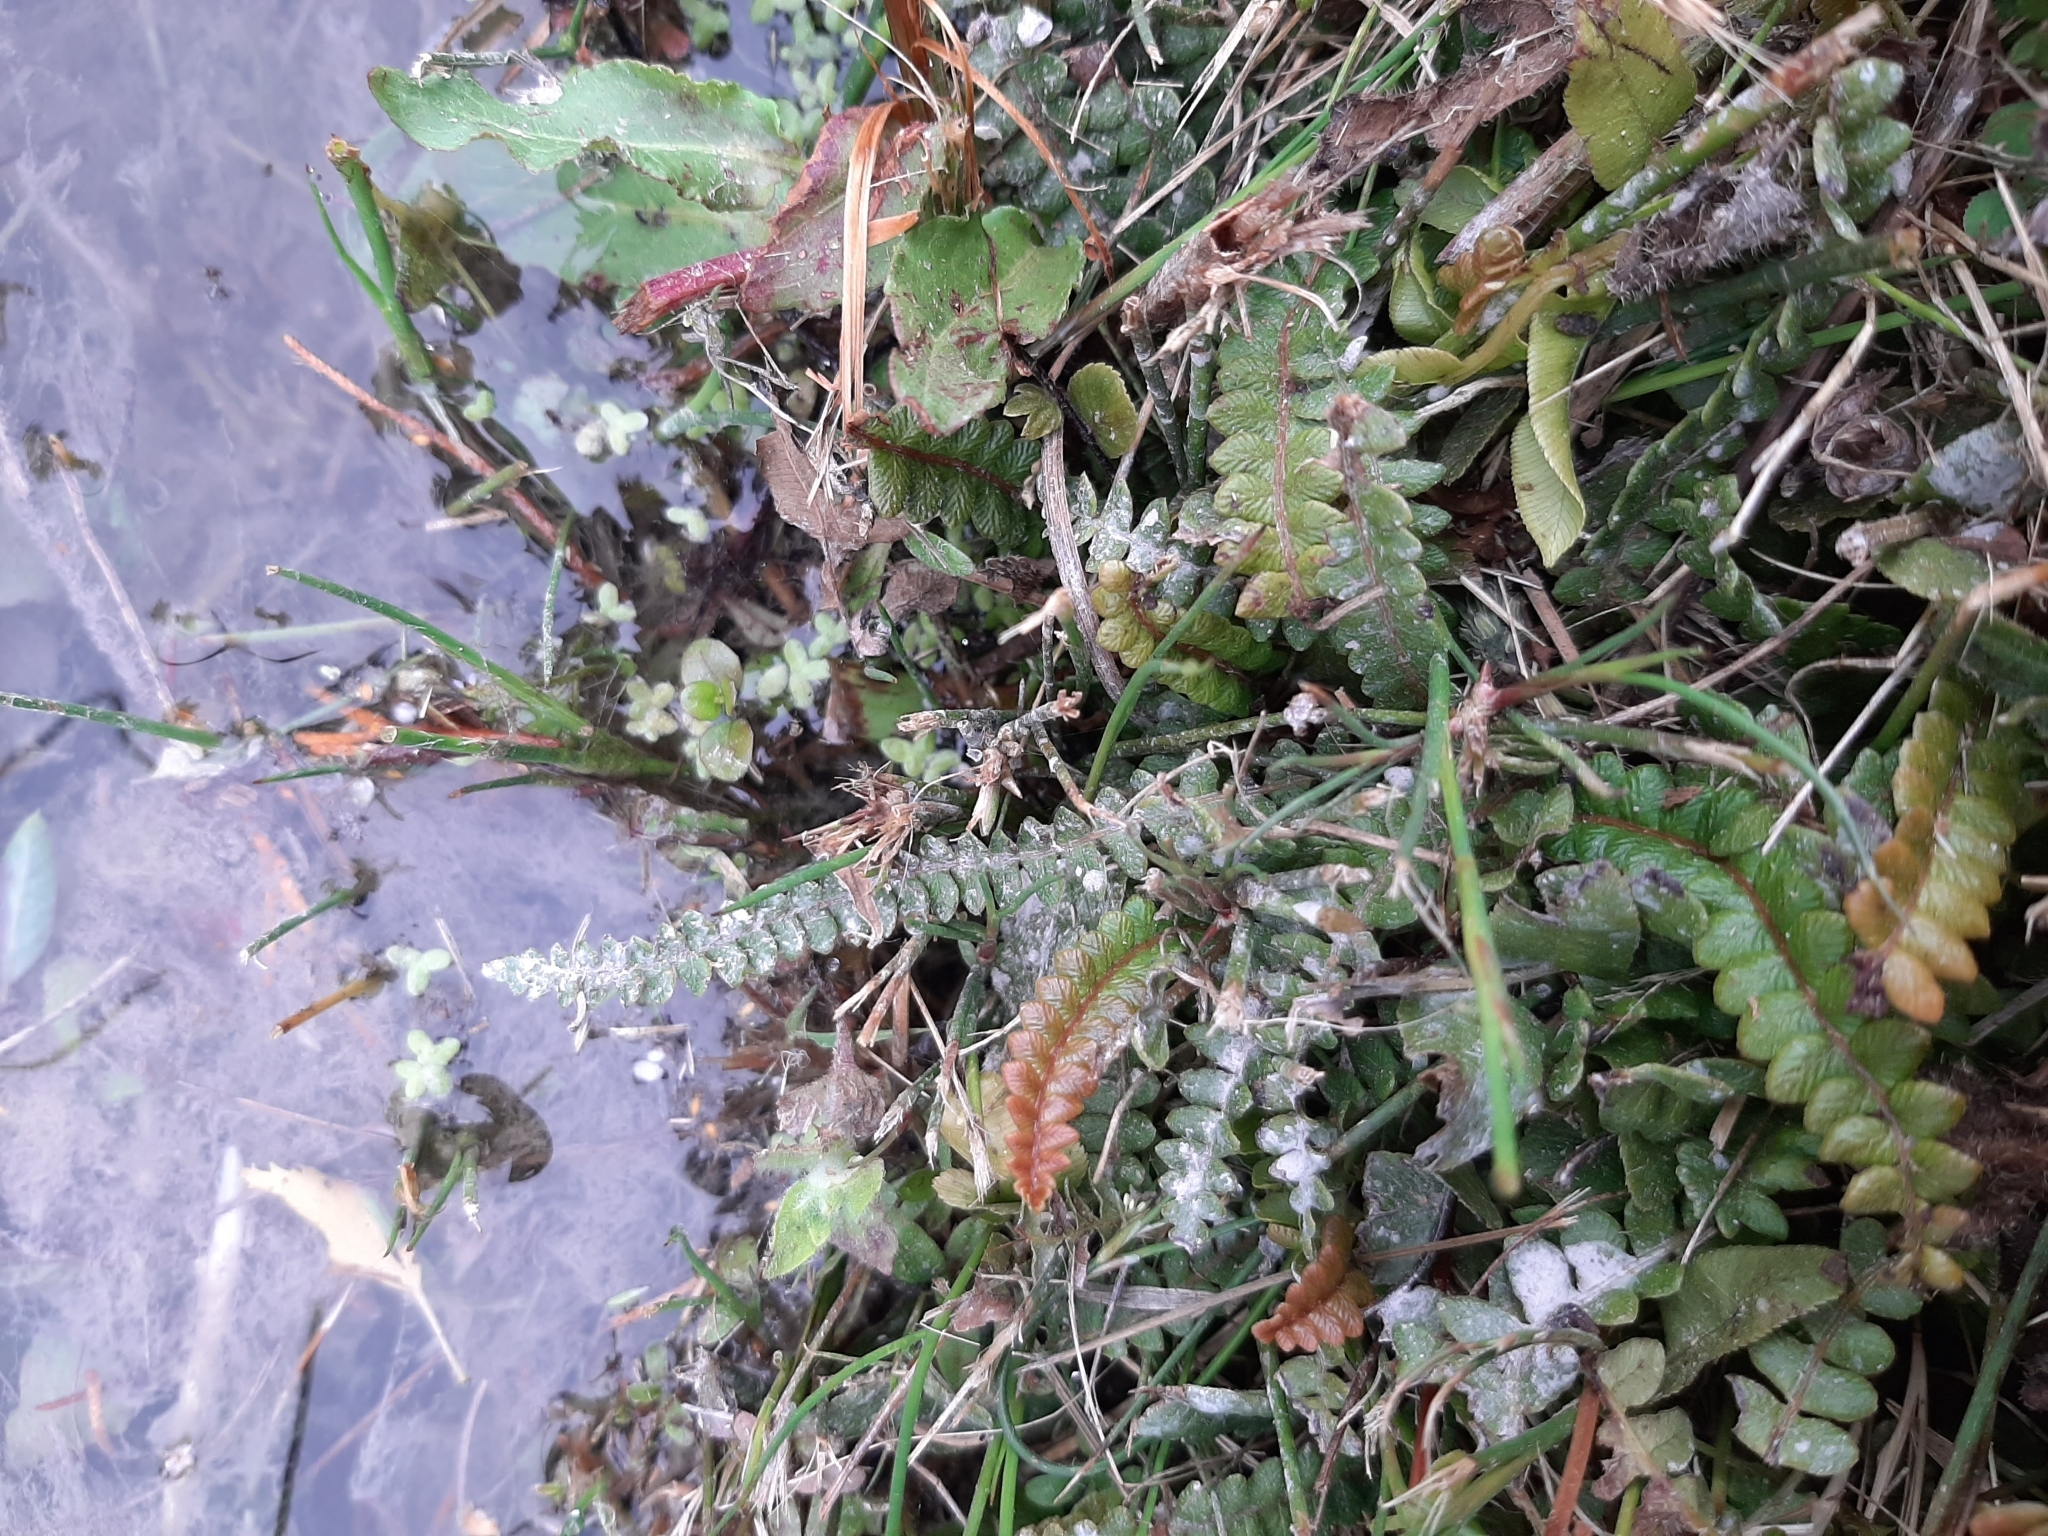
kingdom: Plantae
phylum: Tracheophyta
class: Polypodiopsida
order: Polypodiales
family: Blechnaceae
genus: Austroblechnum
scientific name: Austroblechnum penna-marina
